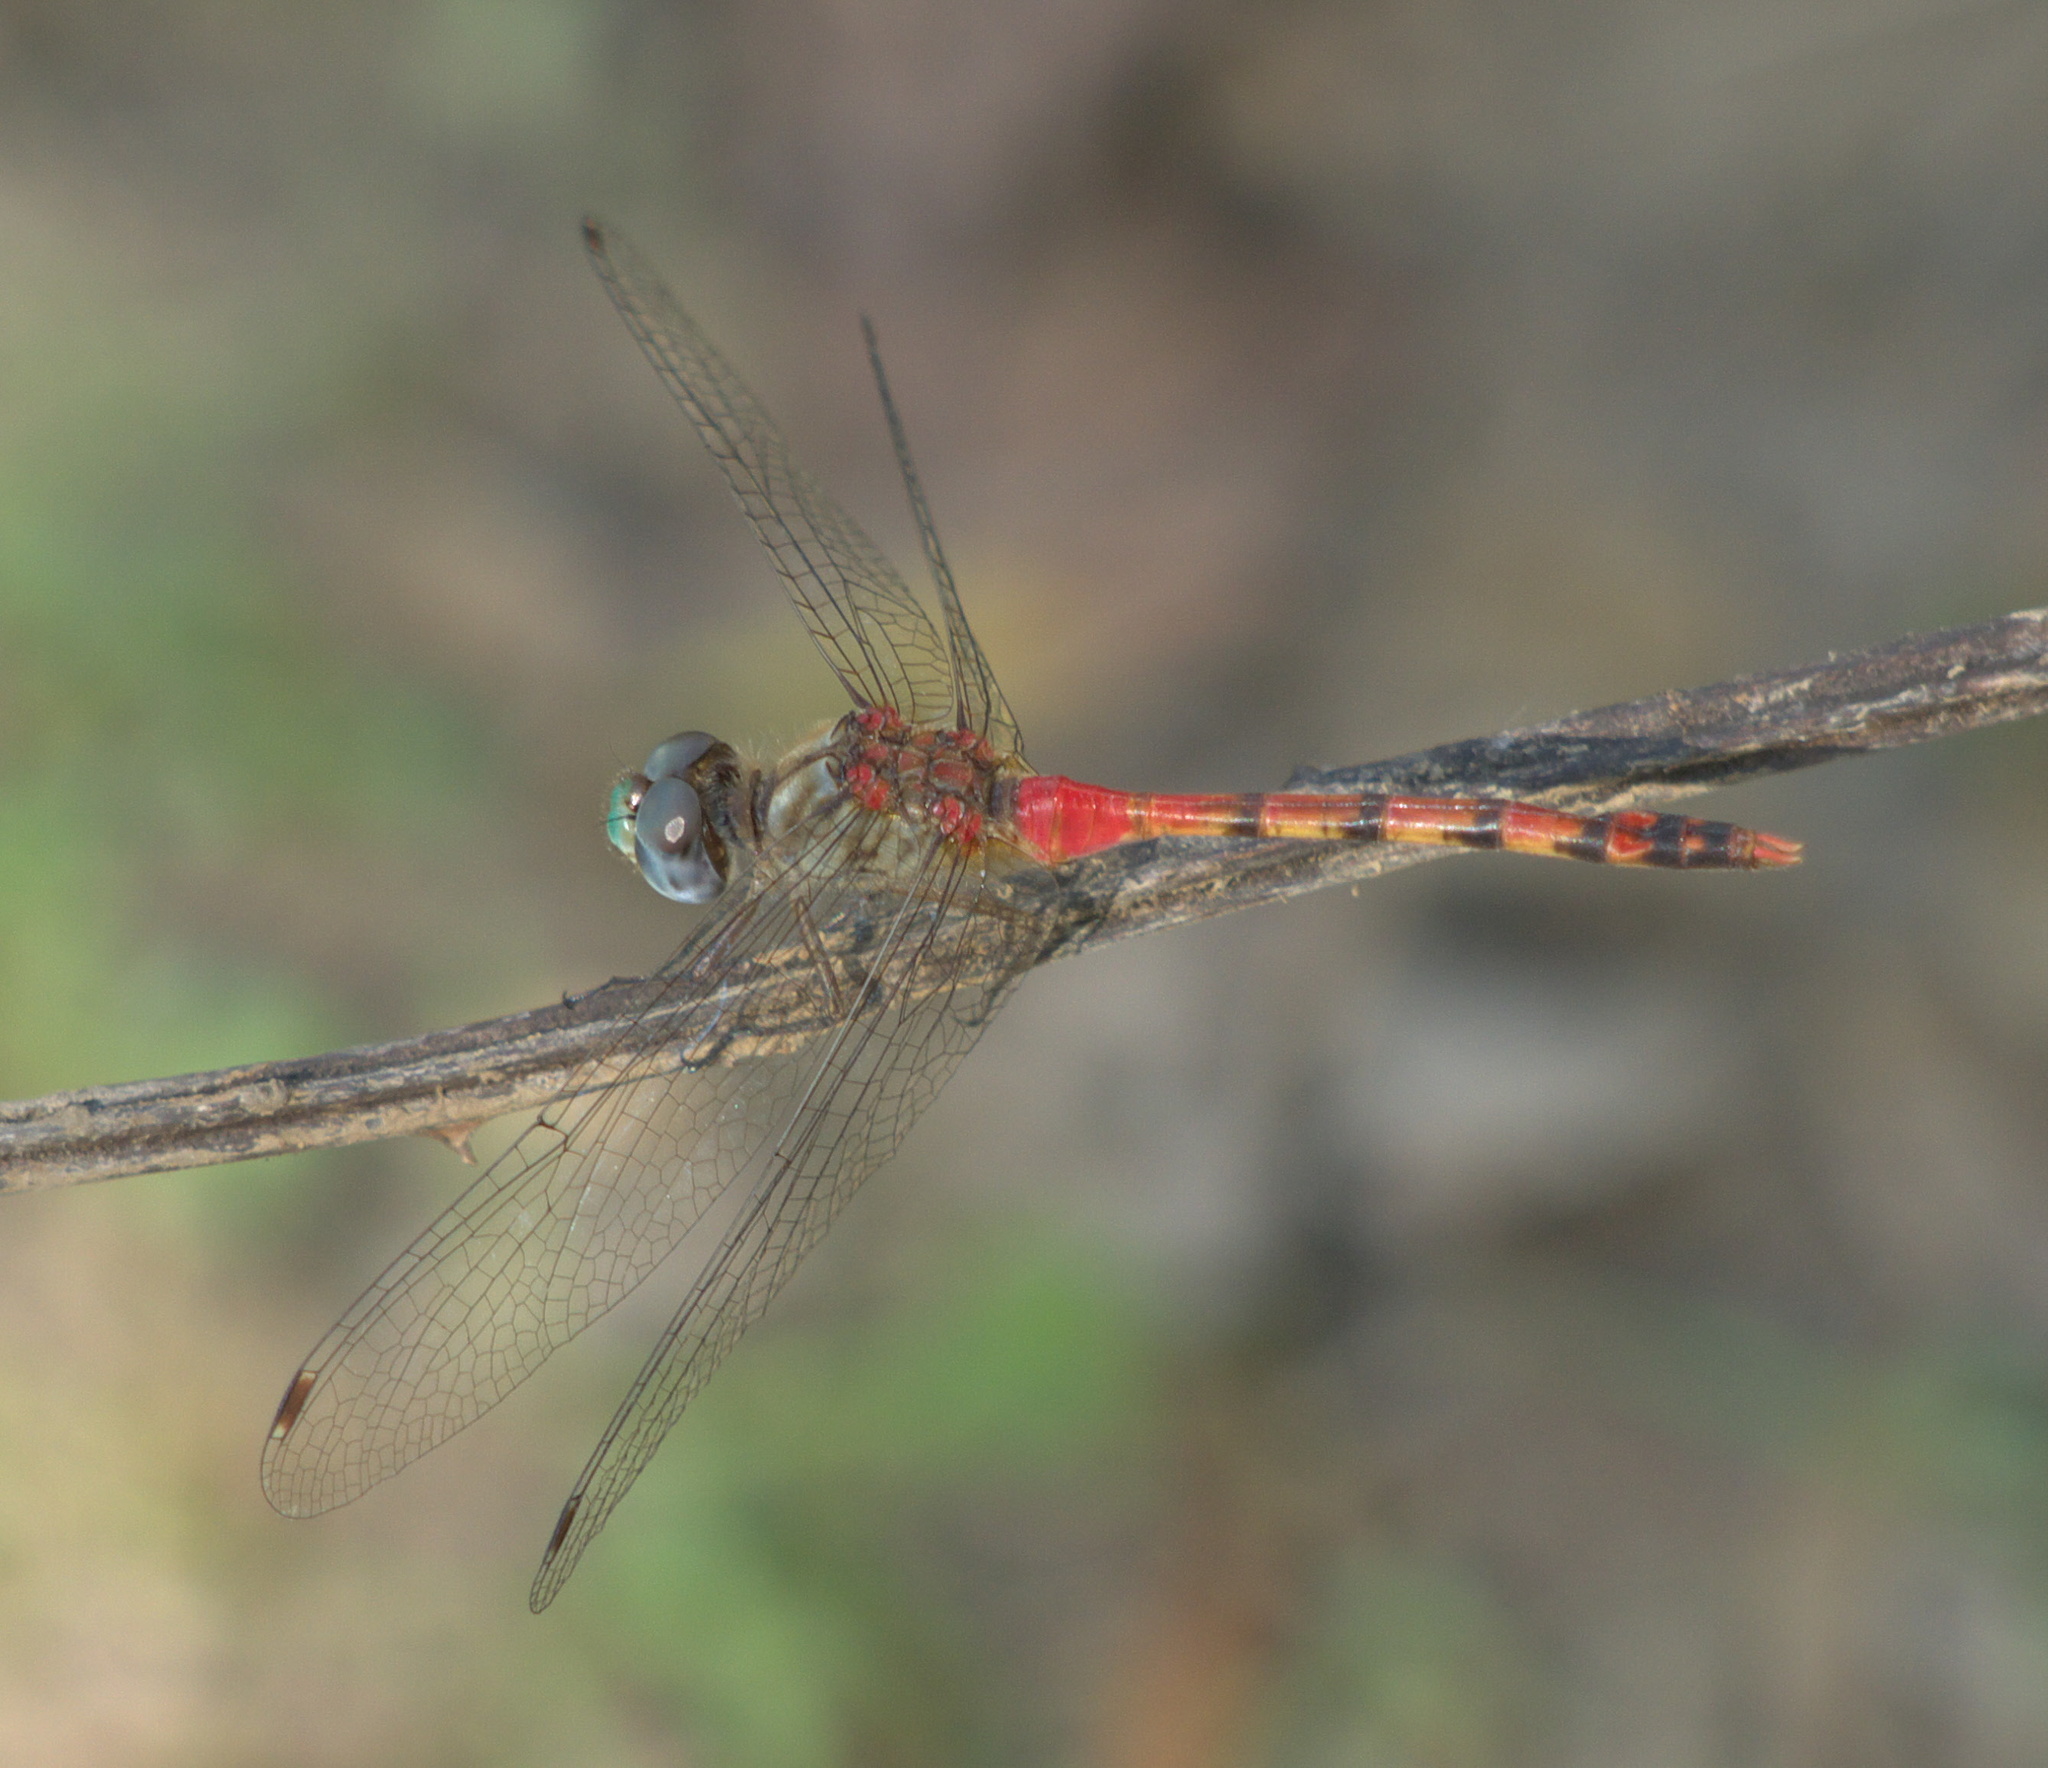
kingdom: Animalia
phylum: Arthropoda
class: Insecta
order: Odonata
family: Libellulidae
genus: Sympetrum
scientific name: Sympetrum ambiguum
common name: Blue-faced meadowhawk
